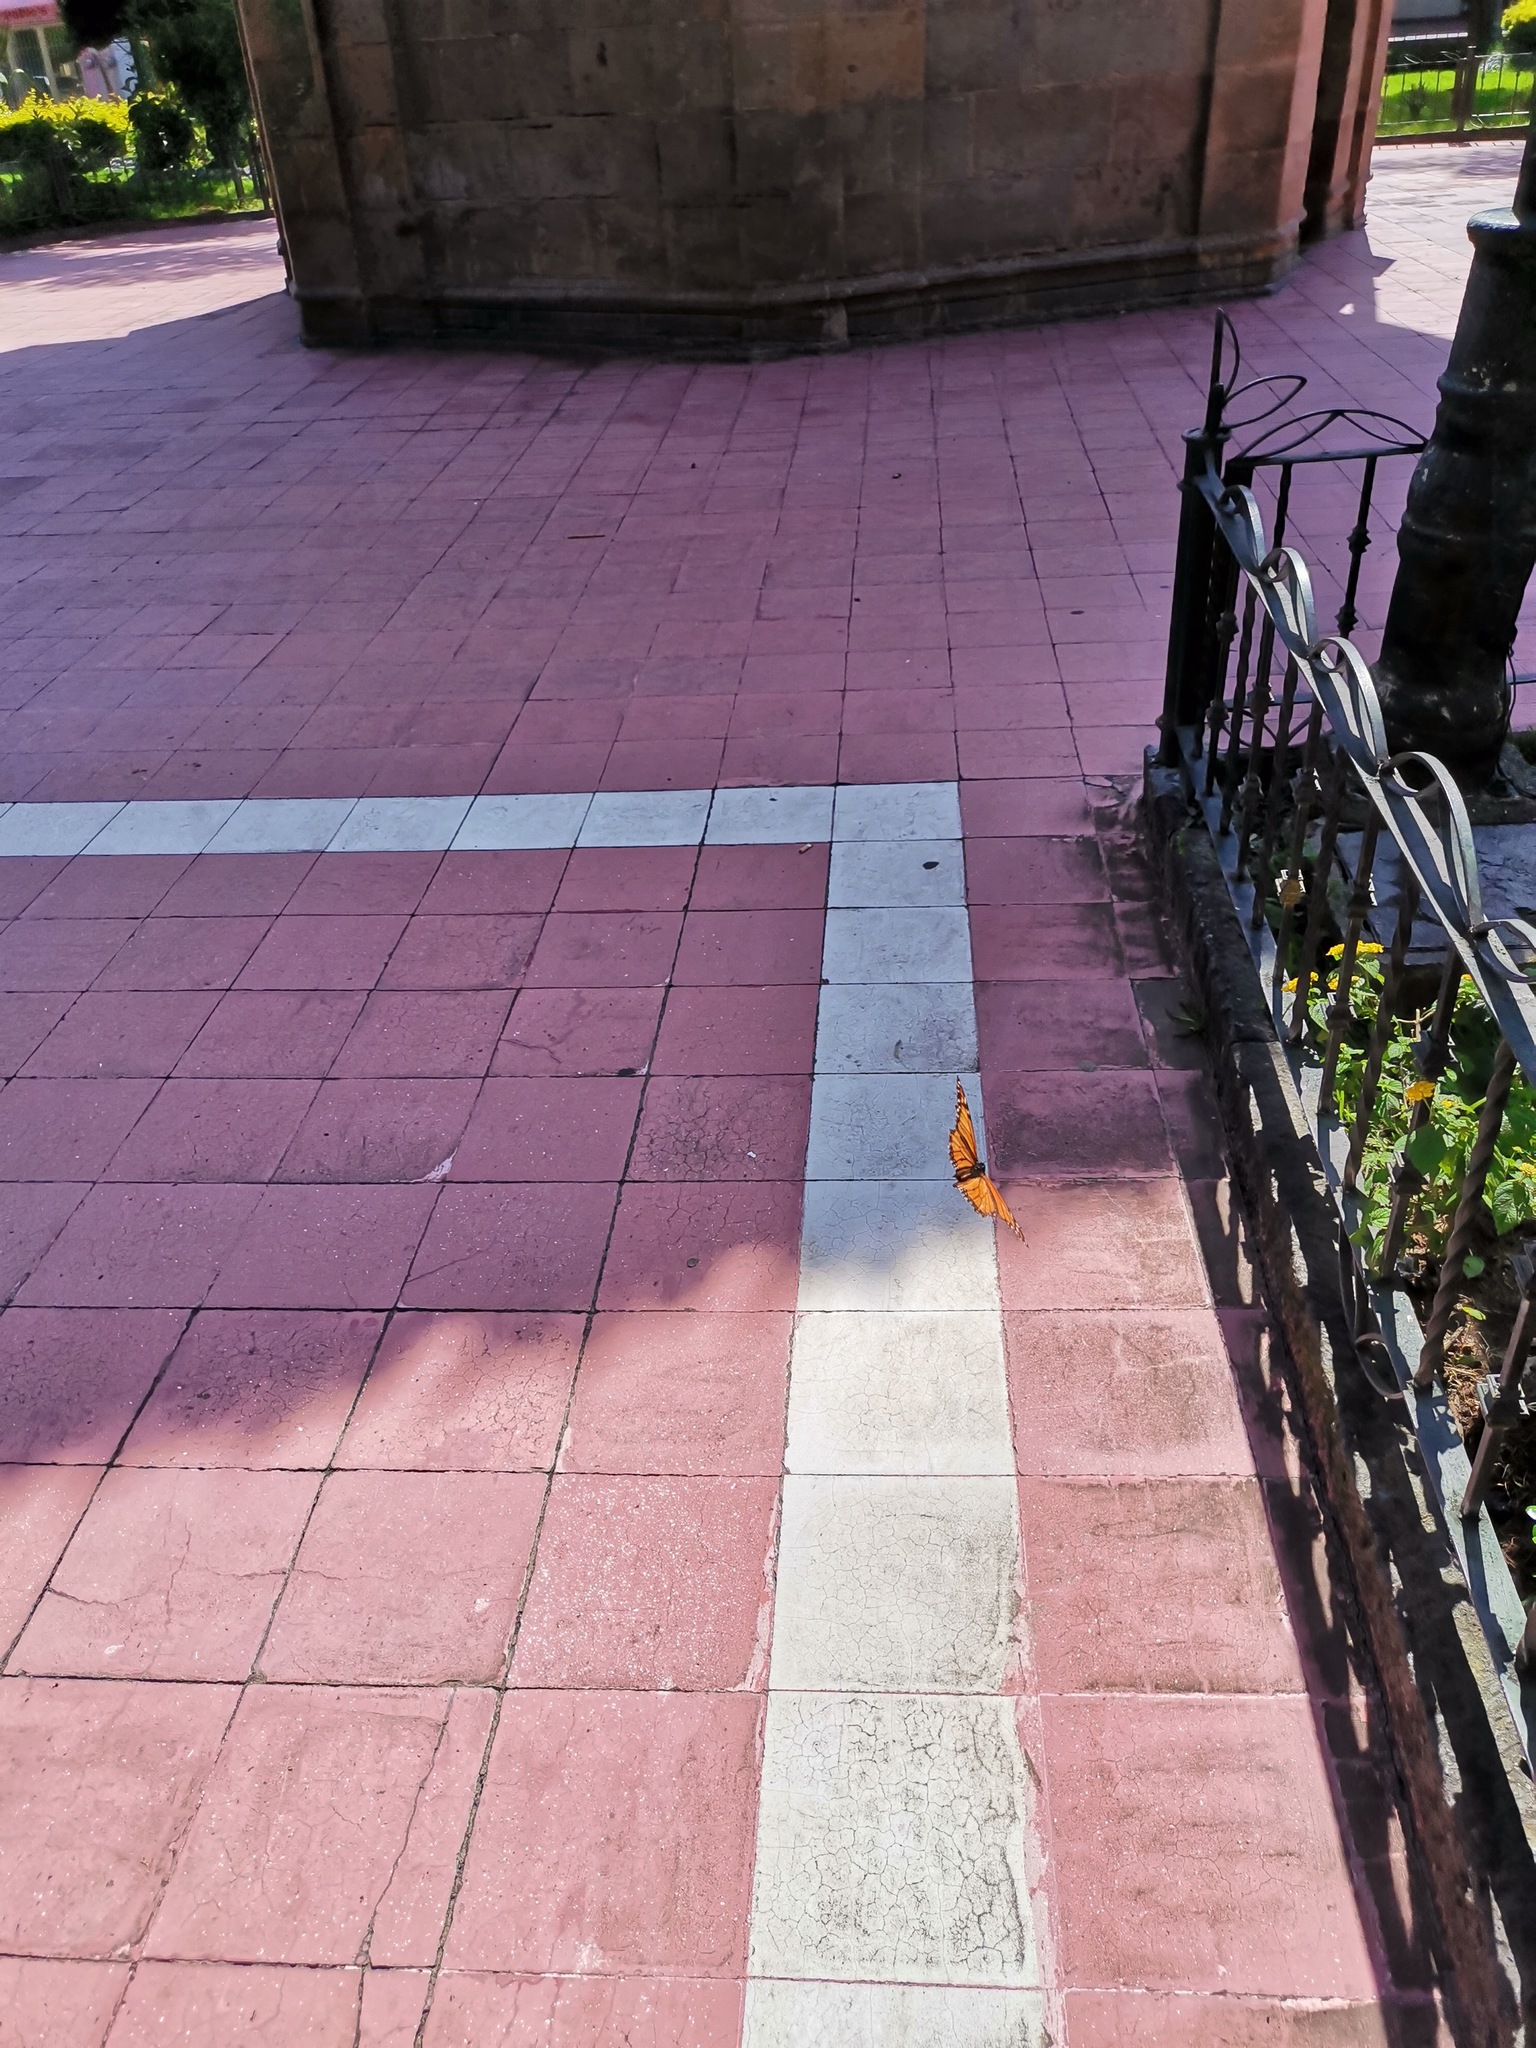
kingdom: Animalia
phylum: Arthropoda
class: Insecta
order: Lepidoptera
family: Nymphalidae
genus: Danaus
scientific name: Danaus plexippus
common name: Monarch
